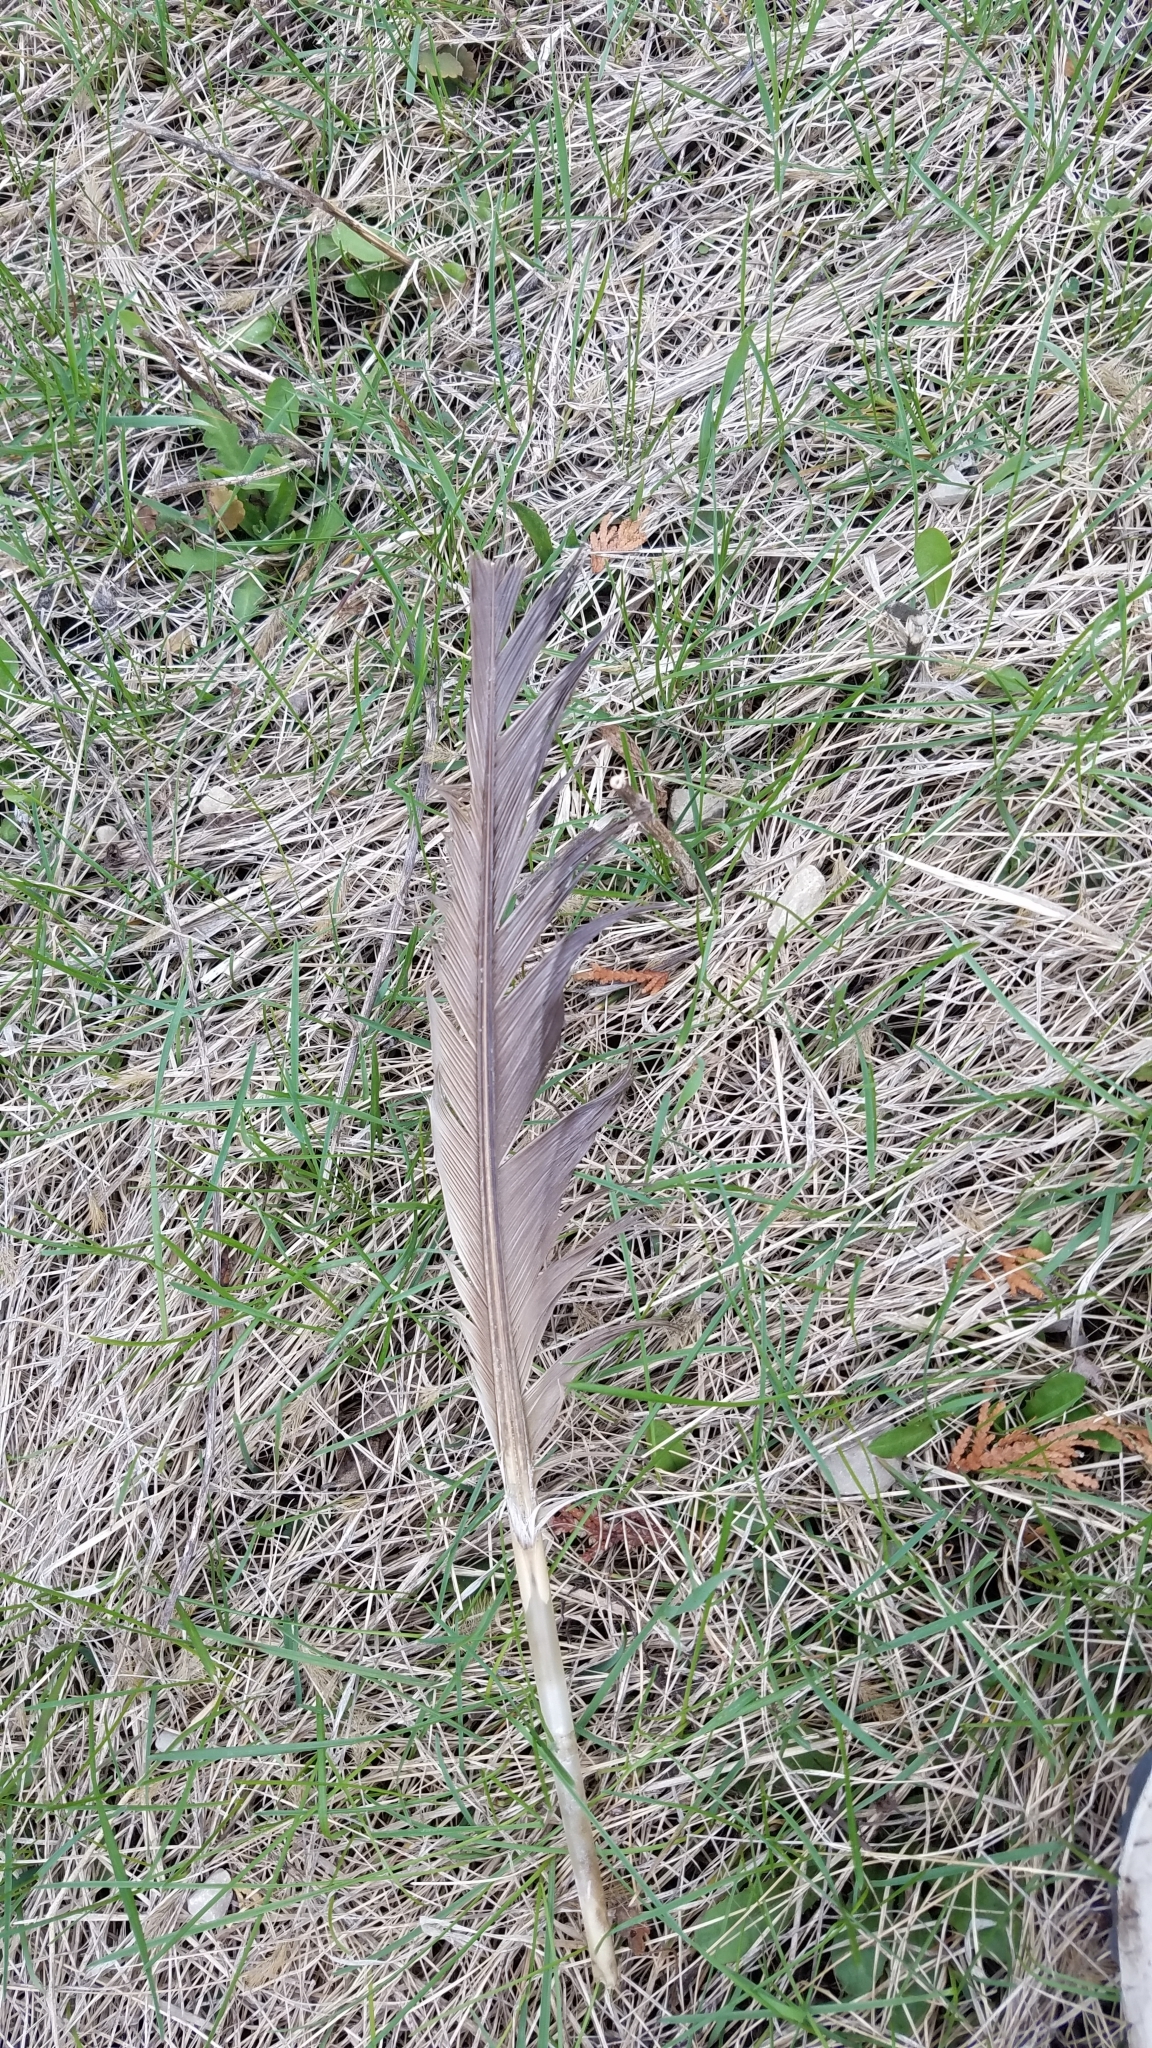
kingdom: Animalia
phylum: Chordata
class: Aves
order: Anseriformes
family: Anatidae
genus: Branta
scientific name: Branta canadensis
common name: Canada goose
